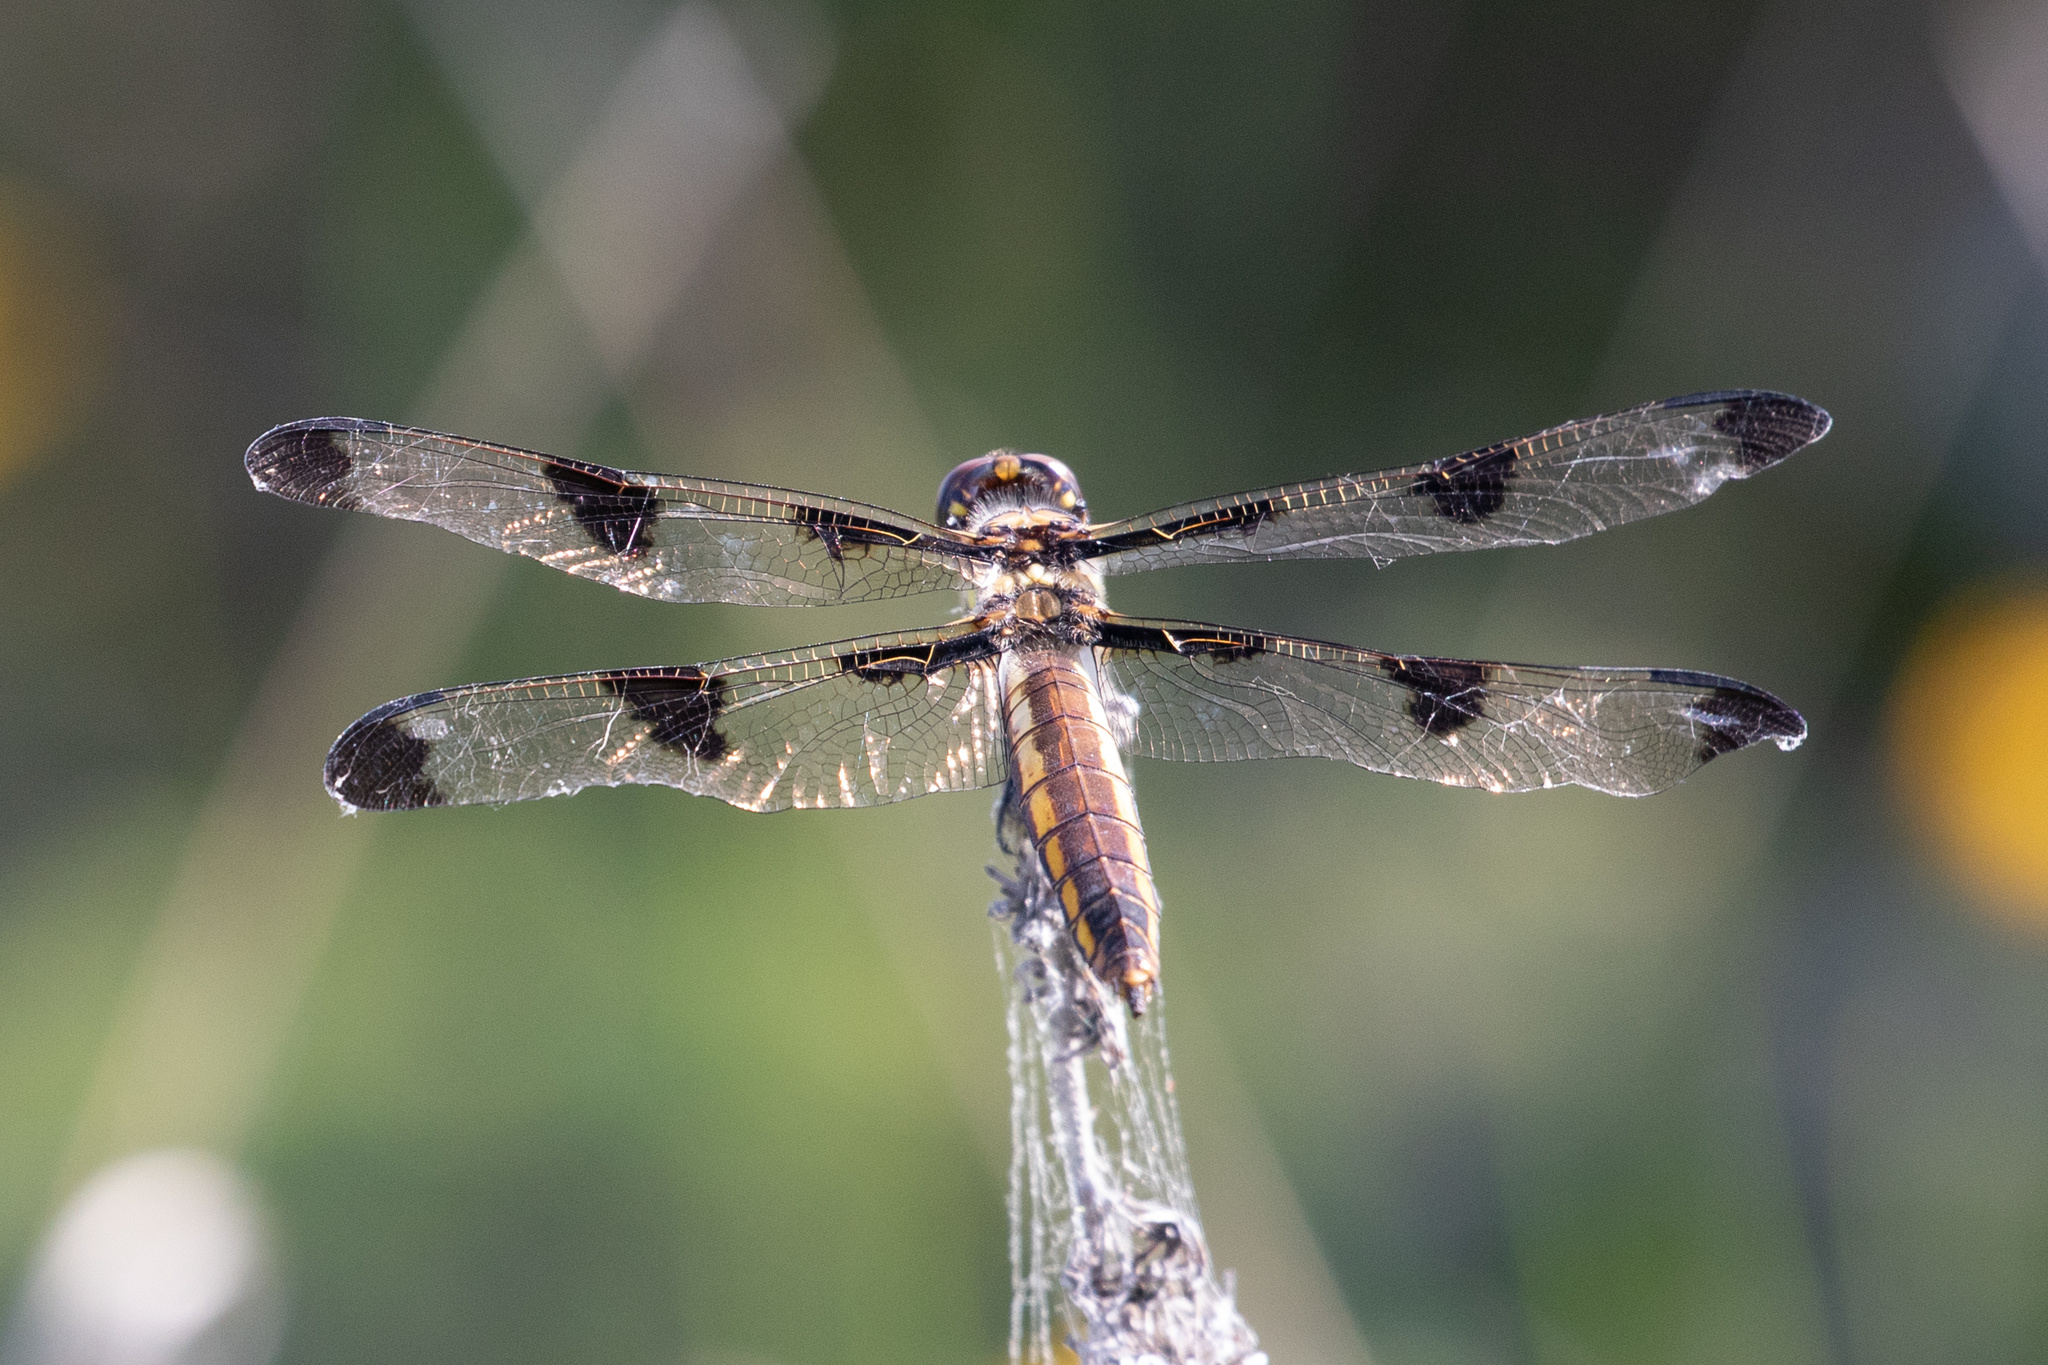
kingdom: Animalia
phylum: Arthropoda
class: Insecta
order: Odonata
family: Libellulidae
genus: Libellula
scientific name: Libellula pulchella
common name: Twelve-spotted skimmer
